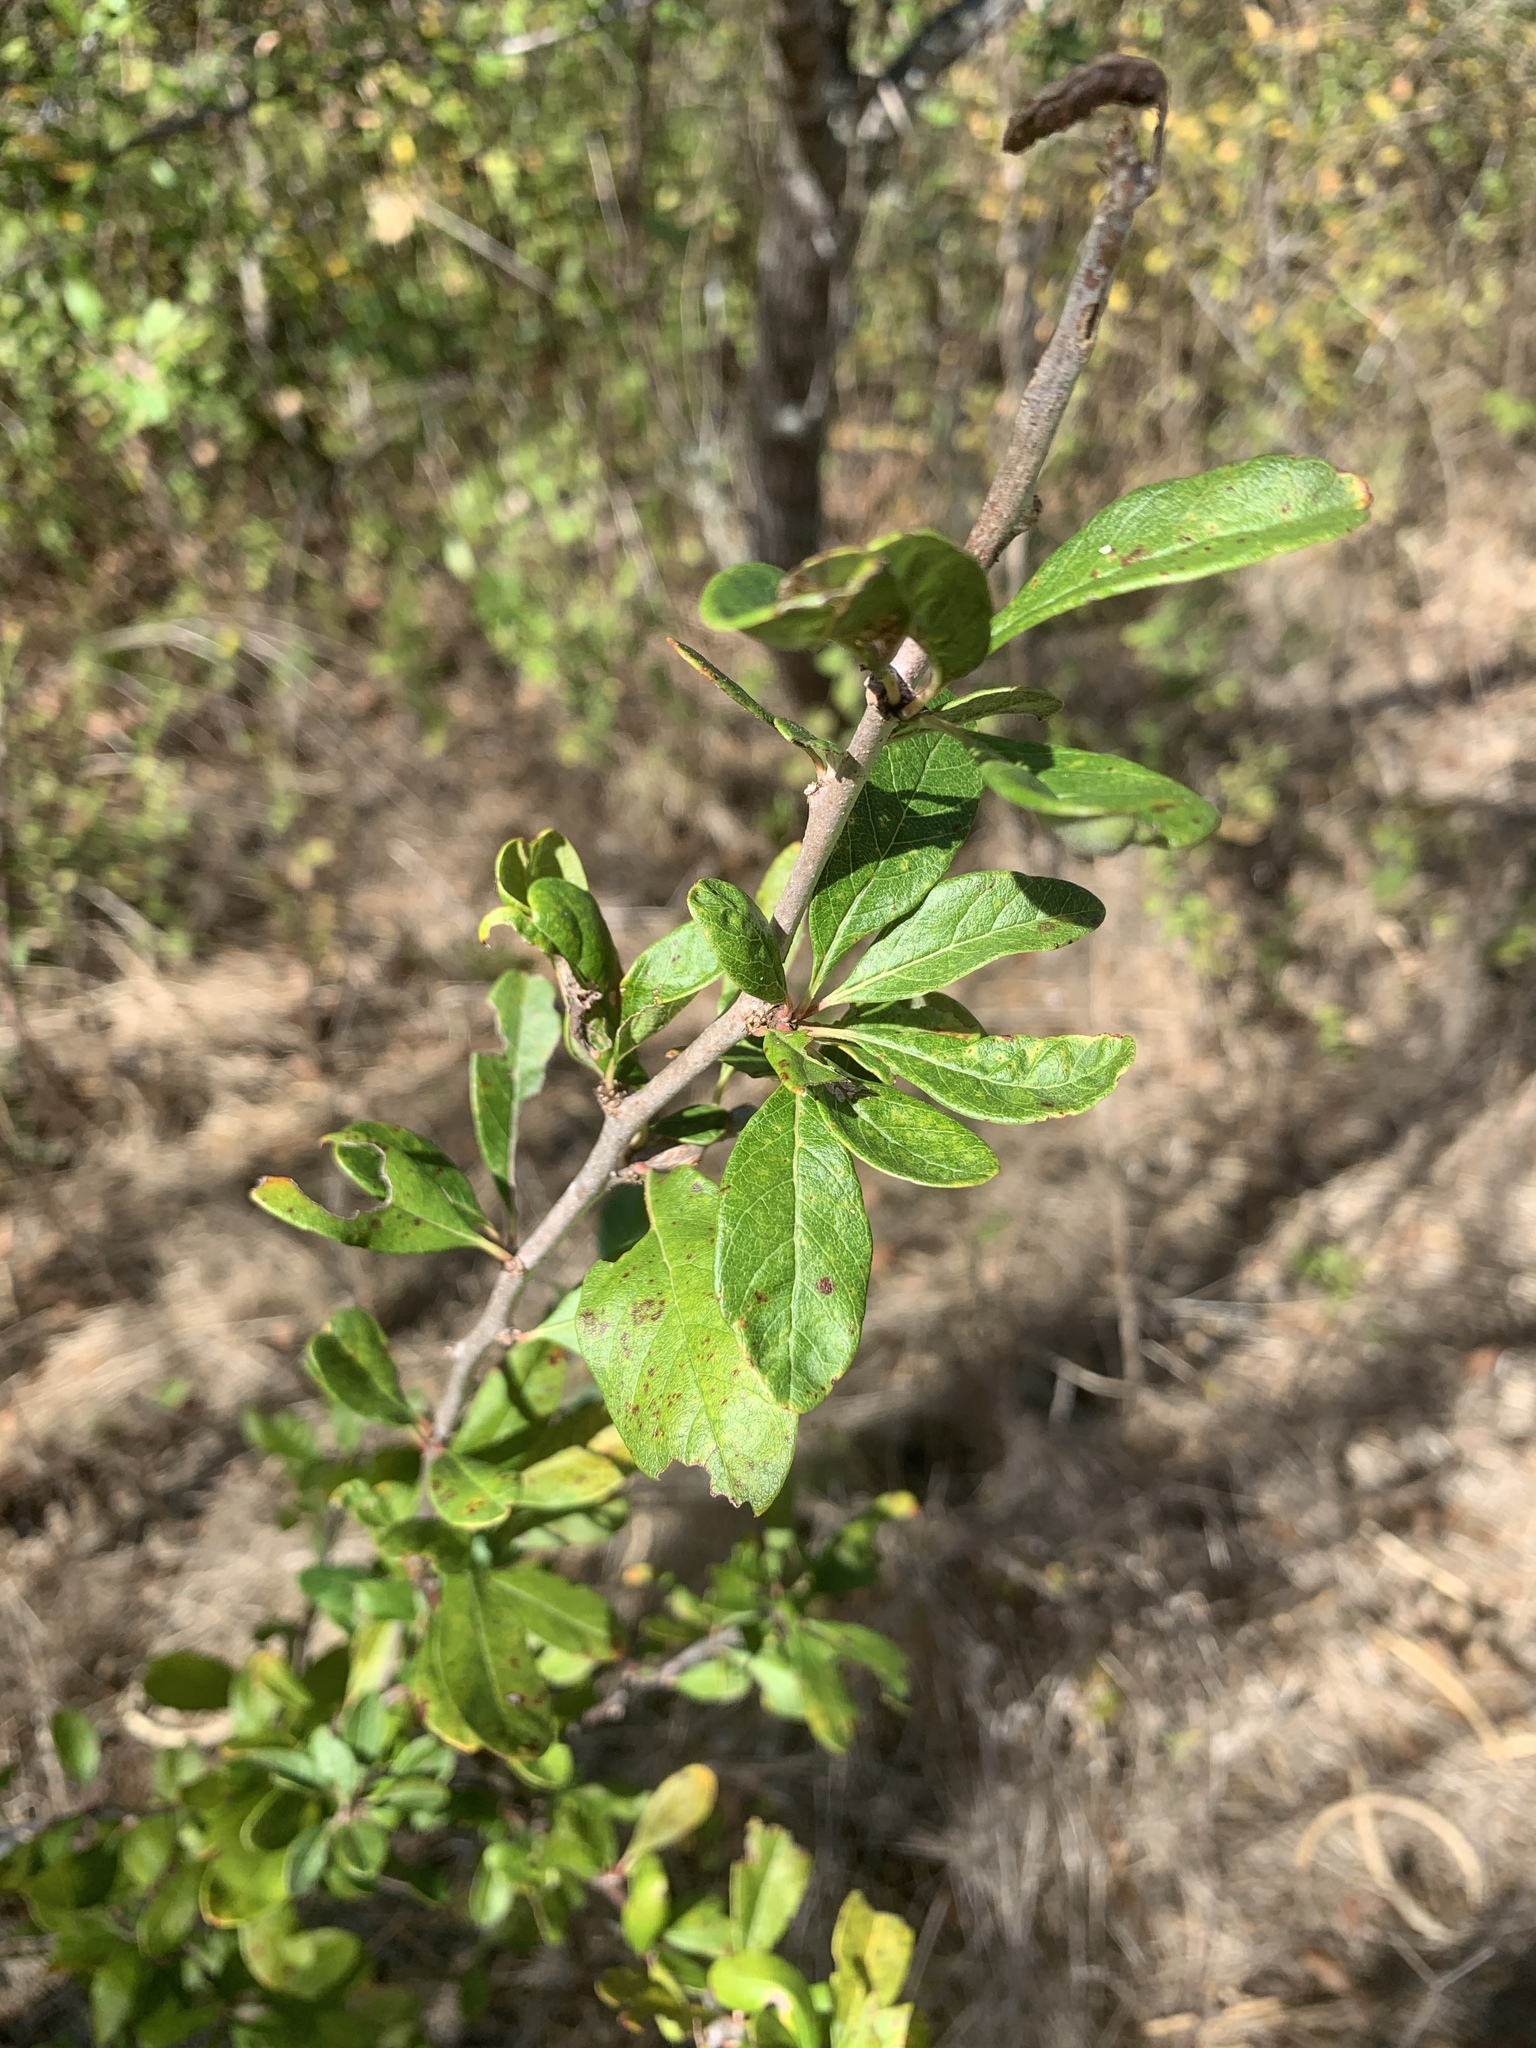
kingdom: Plantae
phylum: Tracheophyta
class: Magnoliopsida
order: Ericales
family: Sapotaceae
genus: Sideroxylon
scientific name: Sideroxylon lanuginosum
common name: Chittamwood
